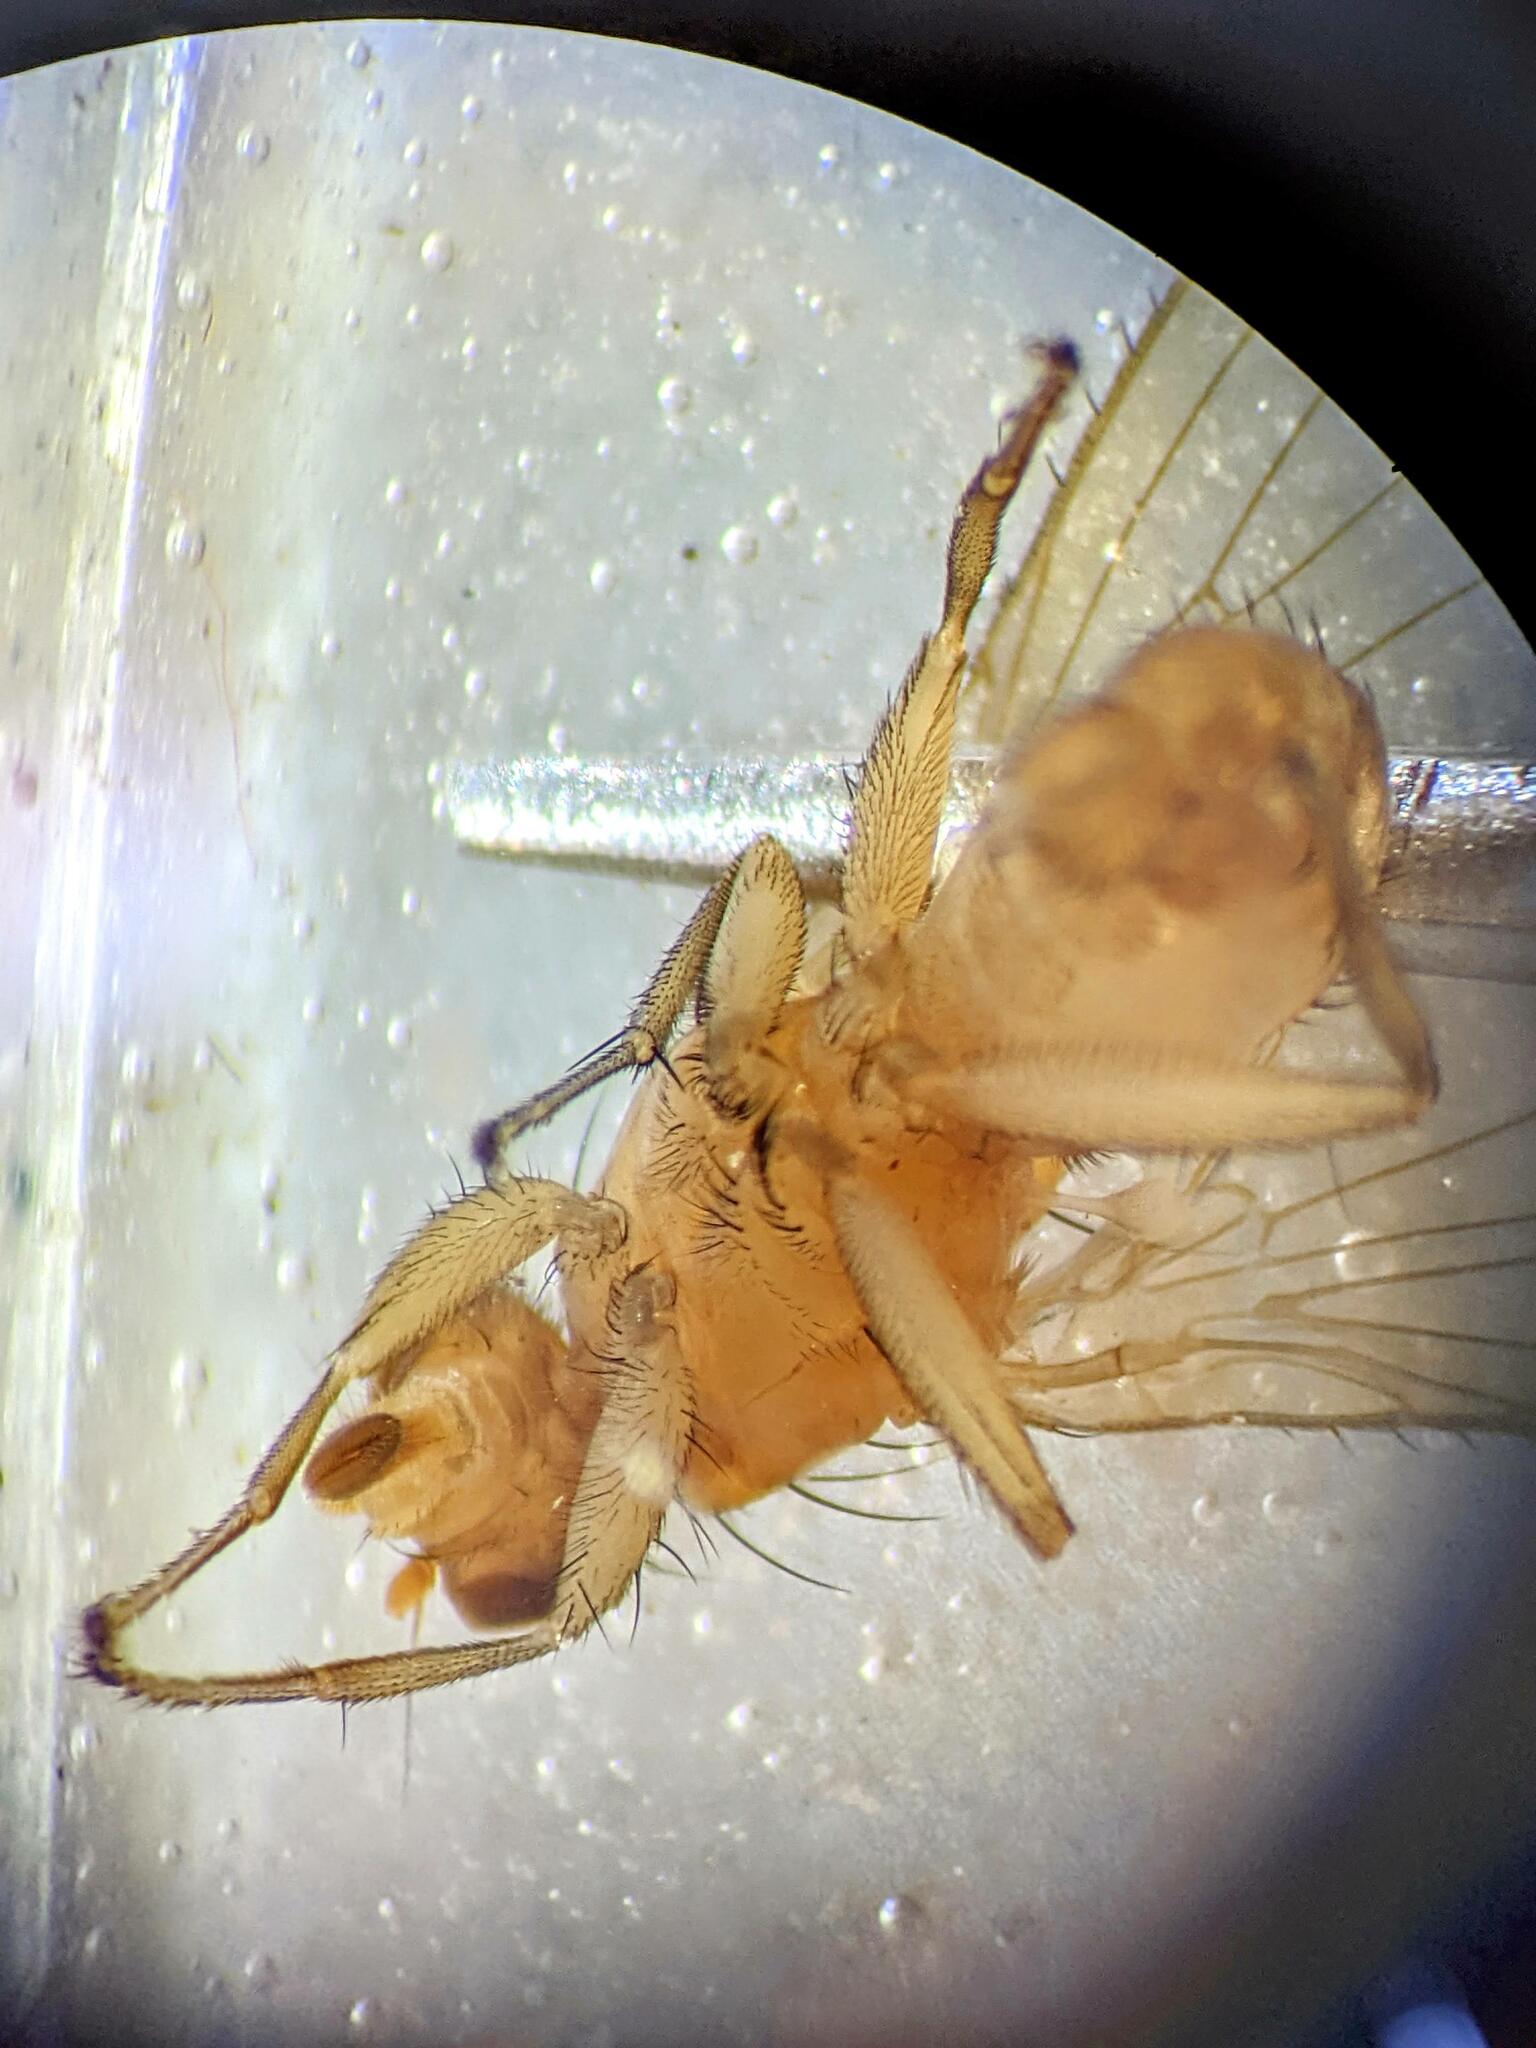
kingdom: Animalia
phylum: Arthropoda
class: Insecta
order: Diptera
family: Heleomyzidae
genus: Allophyla
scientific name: Allophyla laevis
